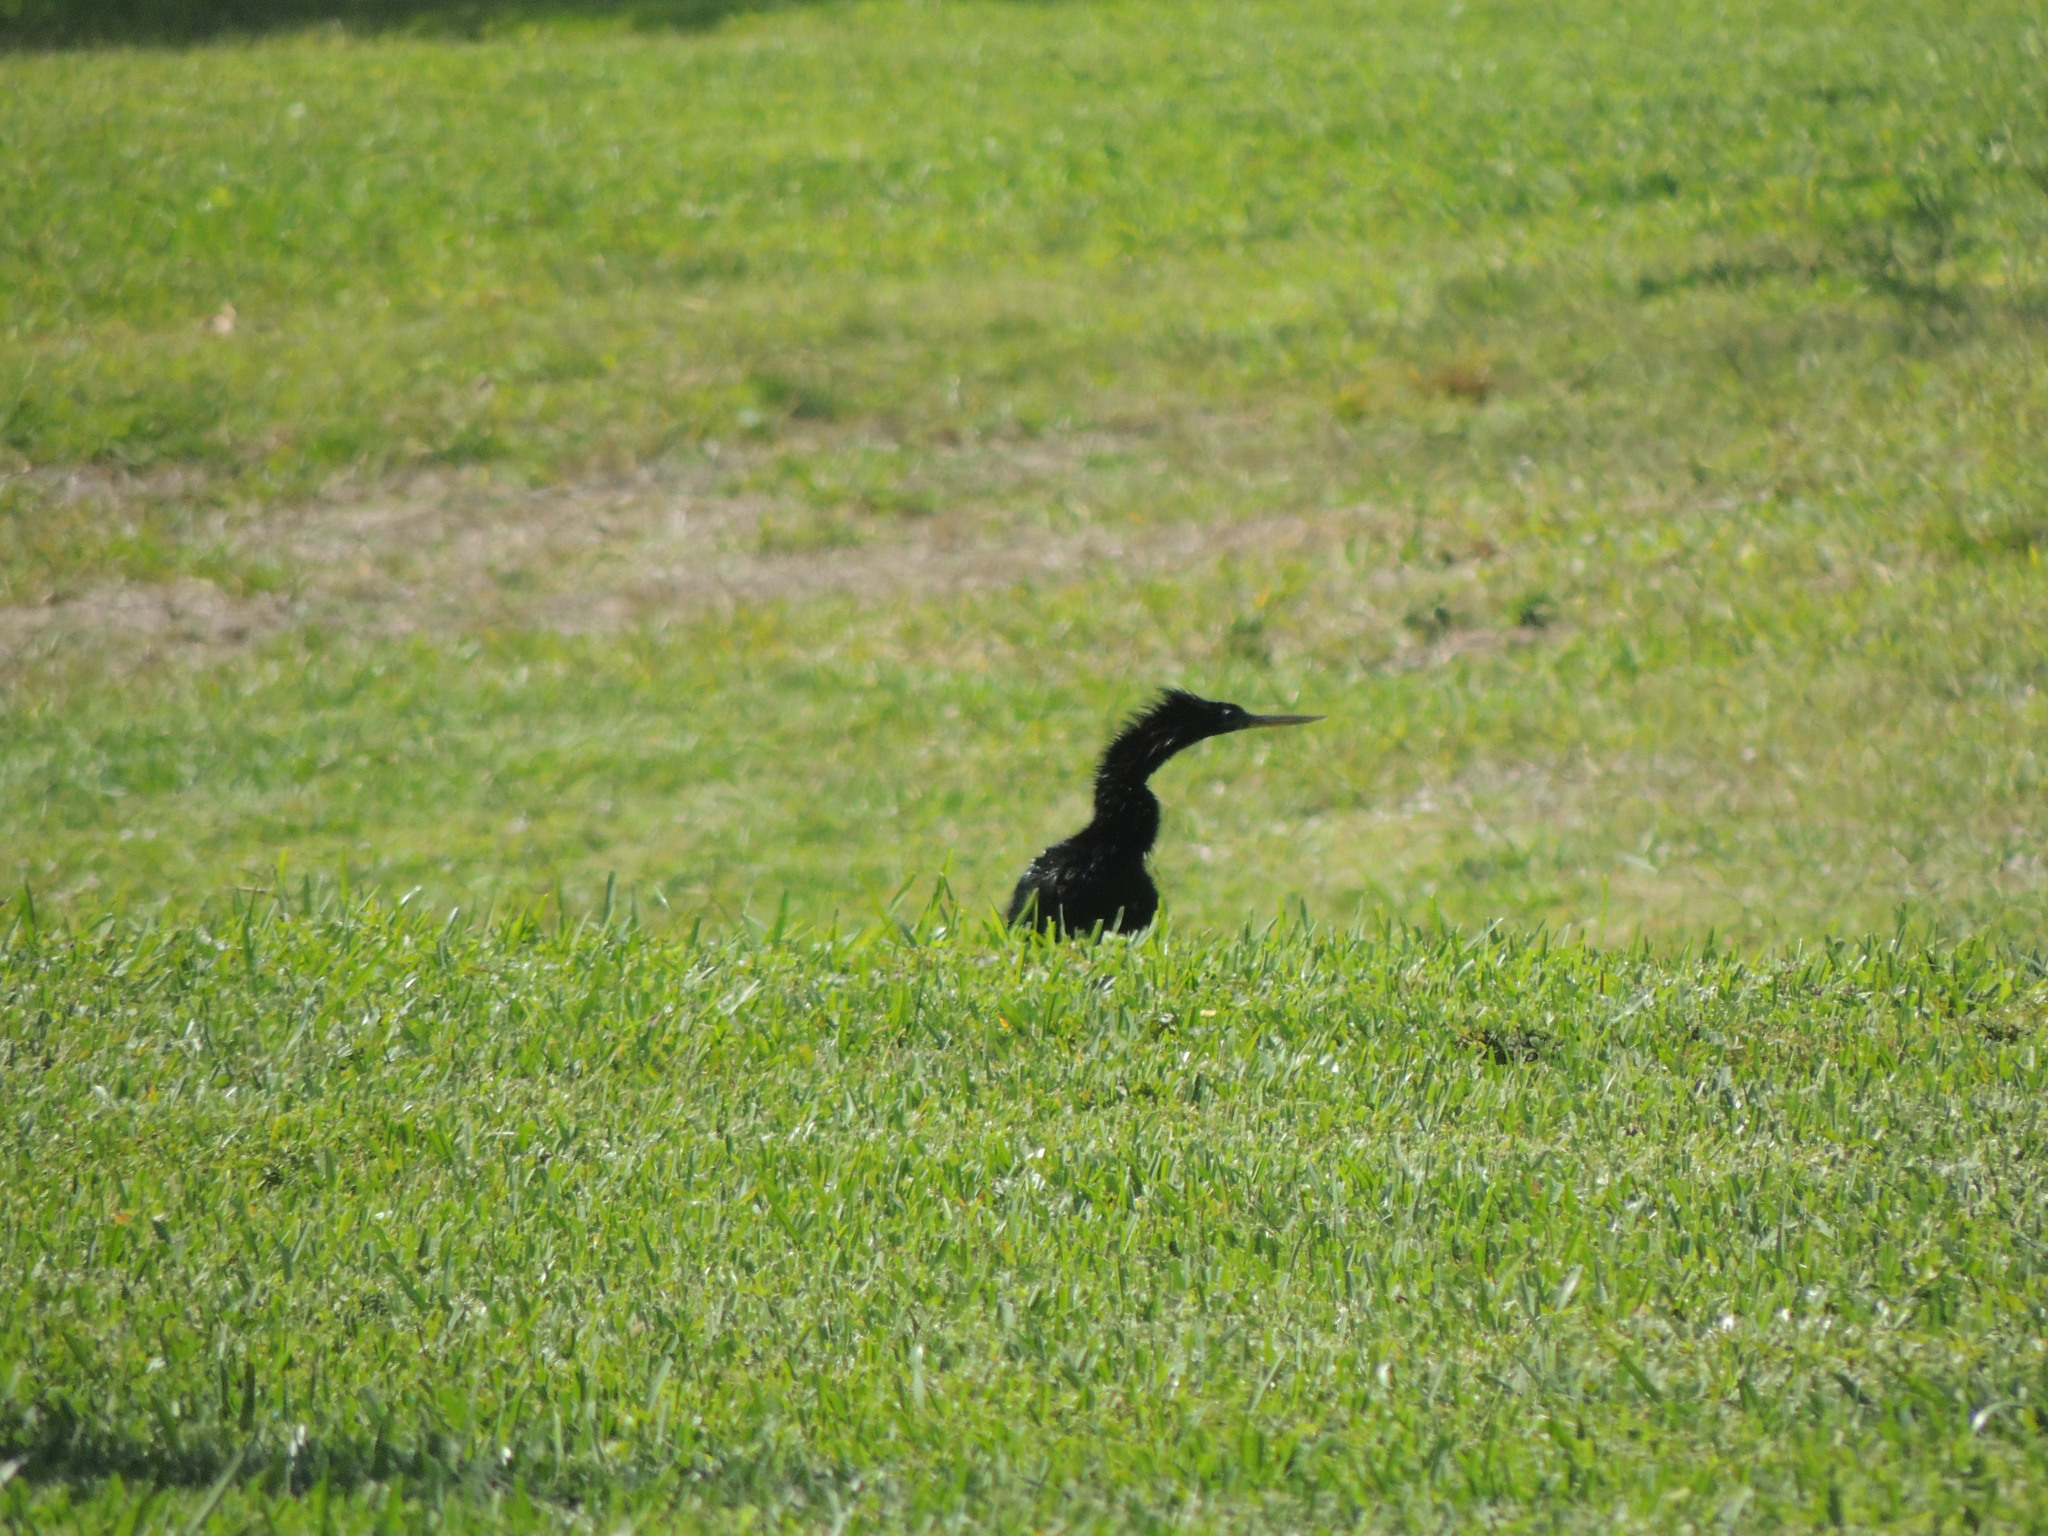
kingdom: Animalia
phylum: Chordata
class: Aves
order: Suliformes
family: Anhingidae
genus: Anhinga
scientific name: Anhinga anhinga
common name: Anhinga
